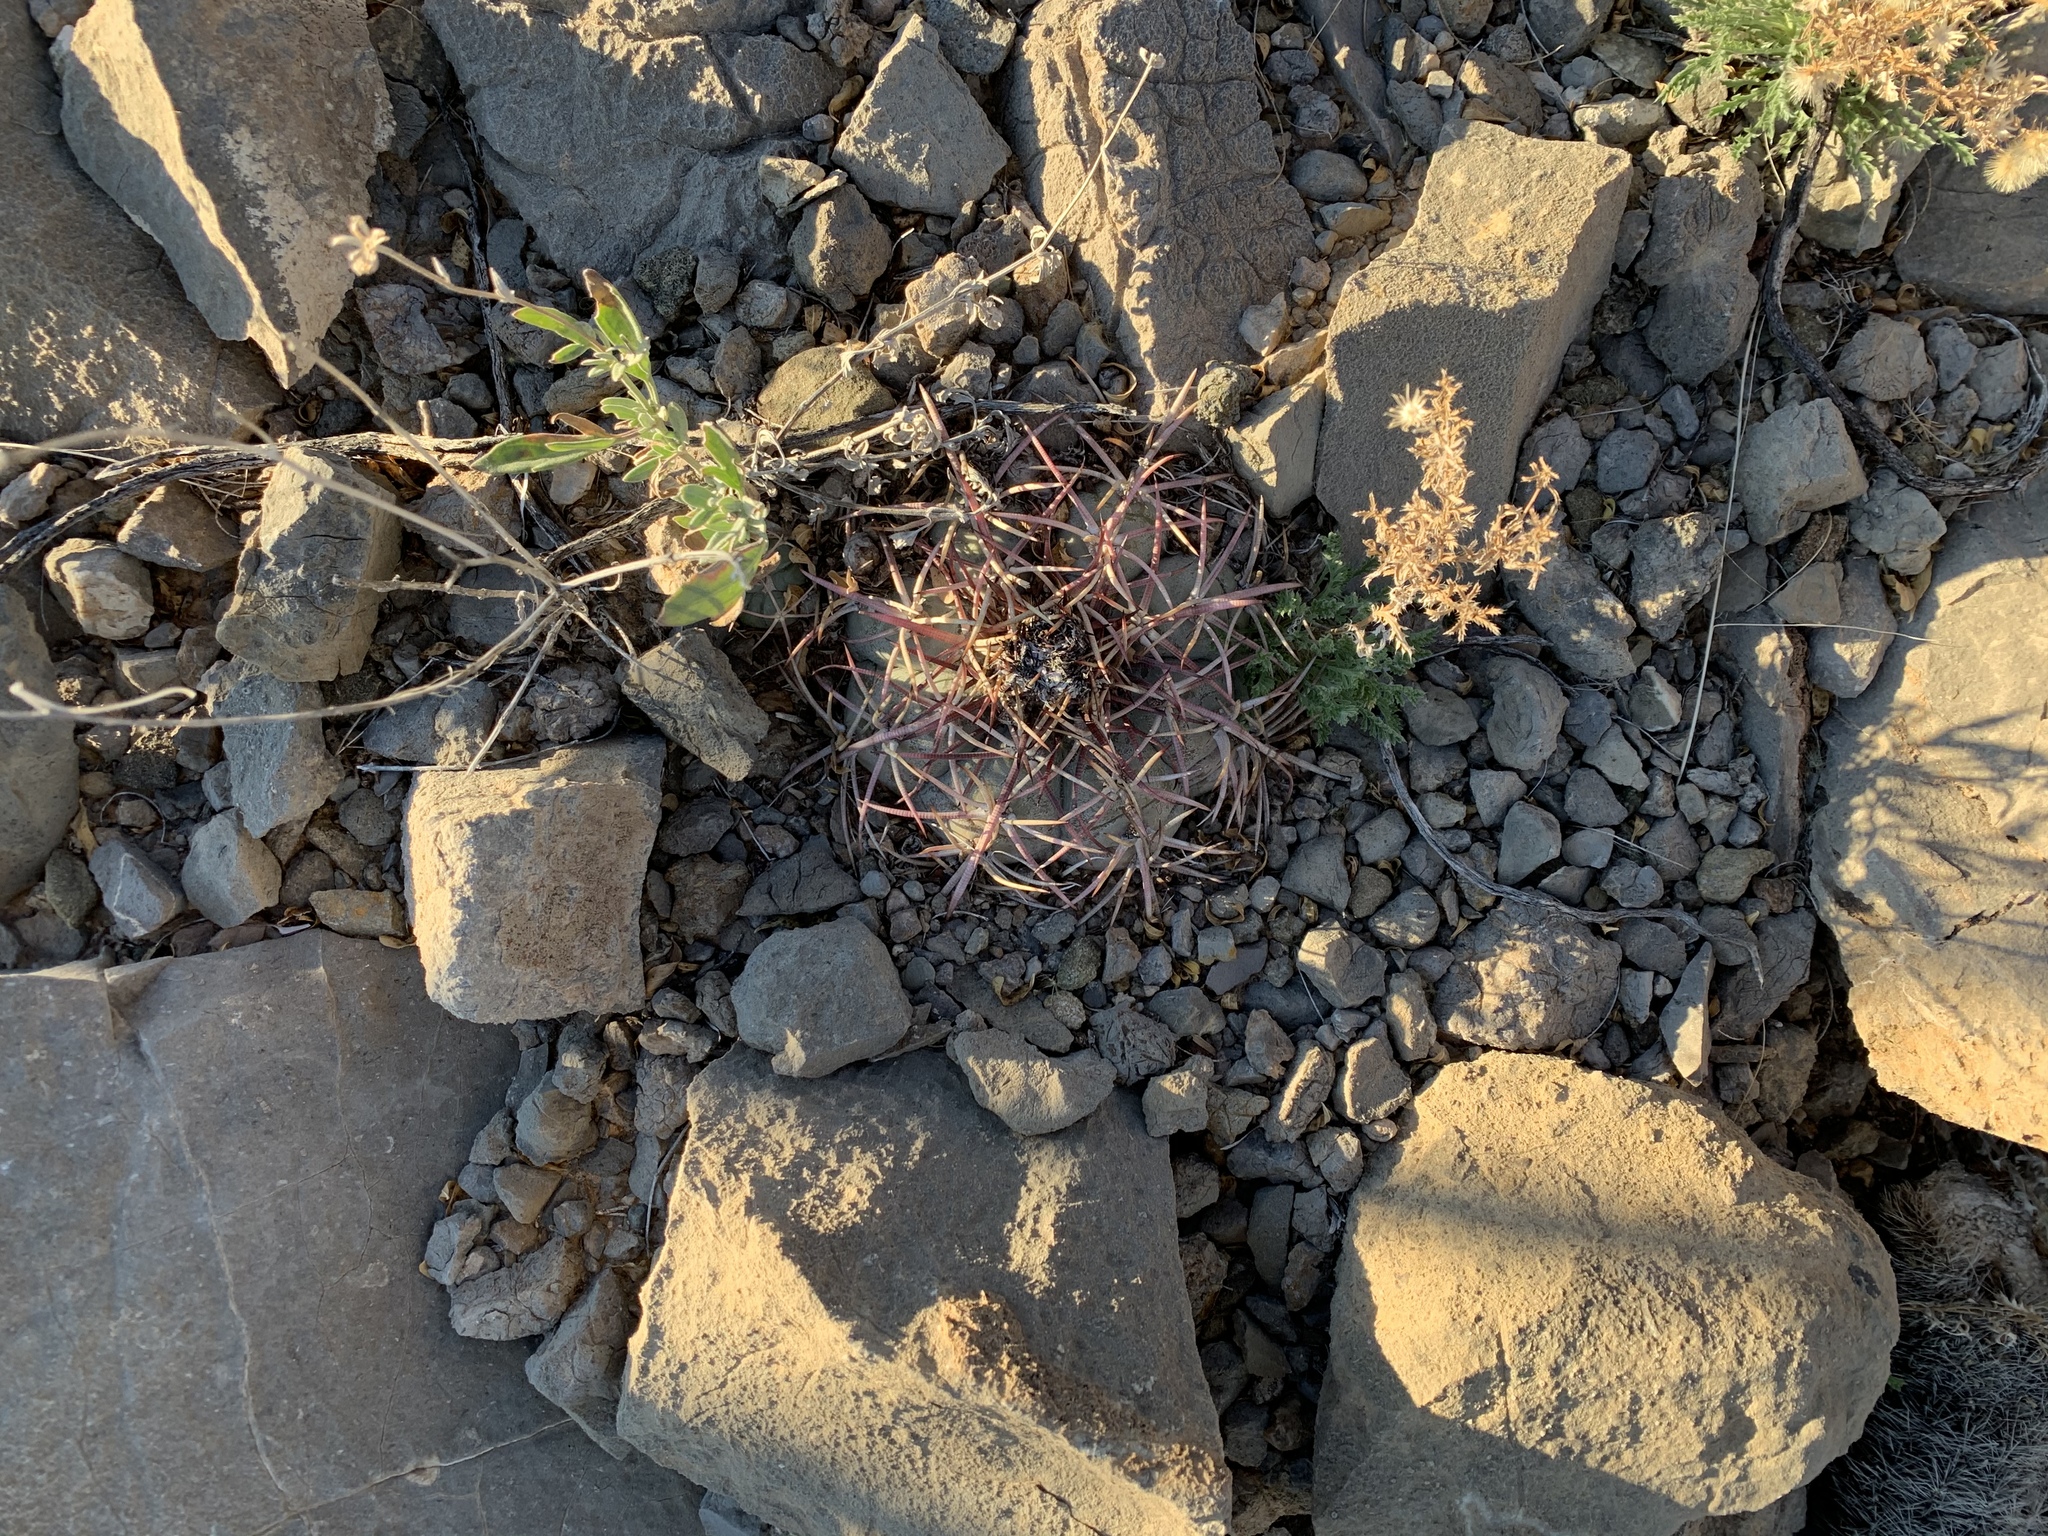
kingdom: Plantae
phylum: Tracheophyta
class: Magnoliopsida
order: Caryophyllales
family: Cactaceae
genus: Echinocactus
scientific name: Echinocactus horizonthalonius
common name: Devilshead
